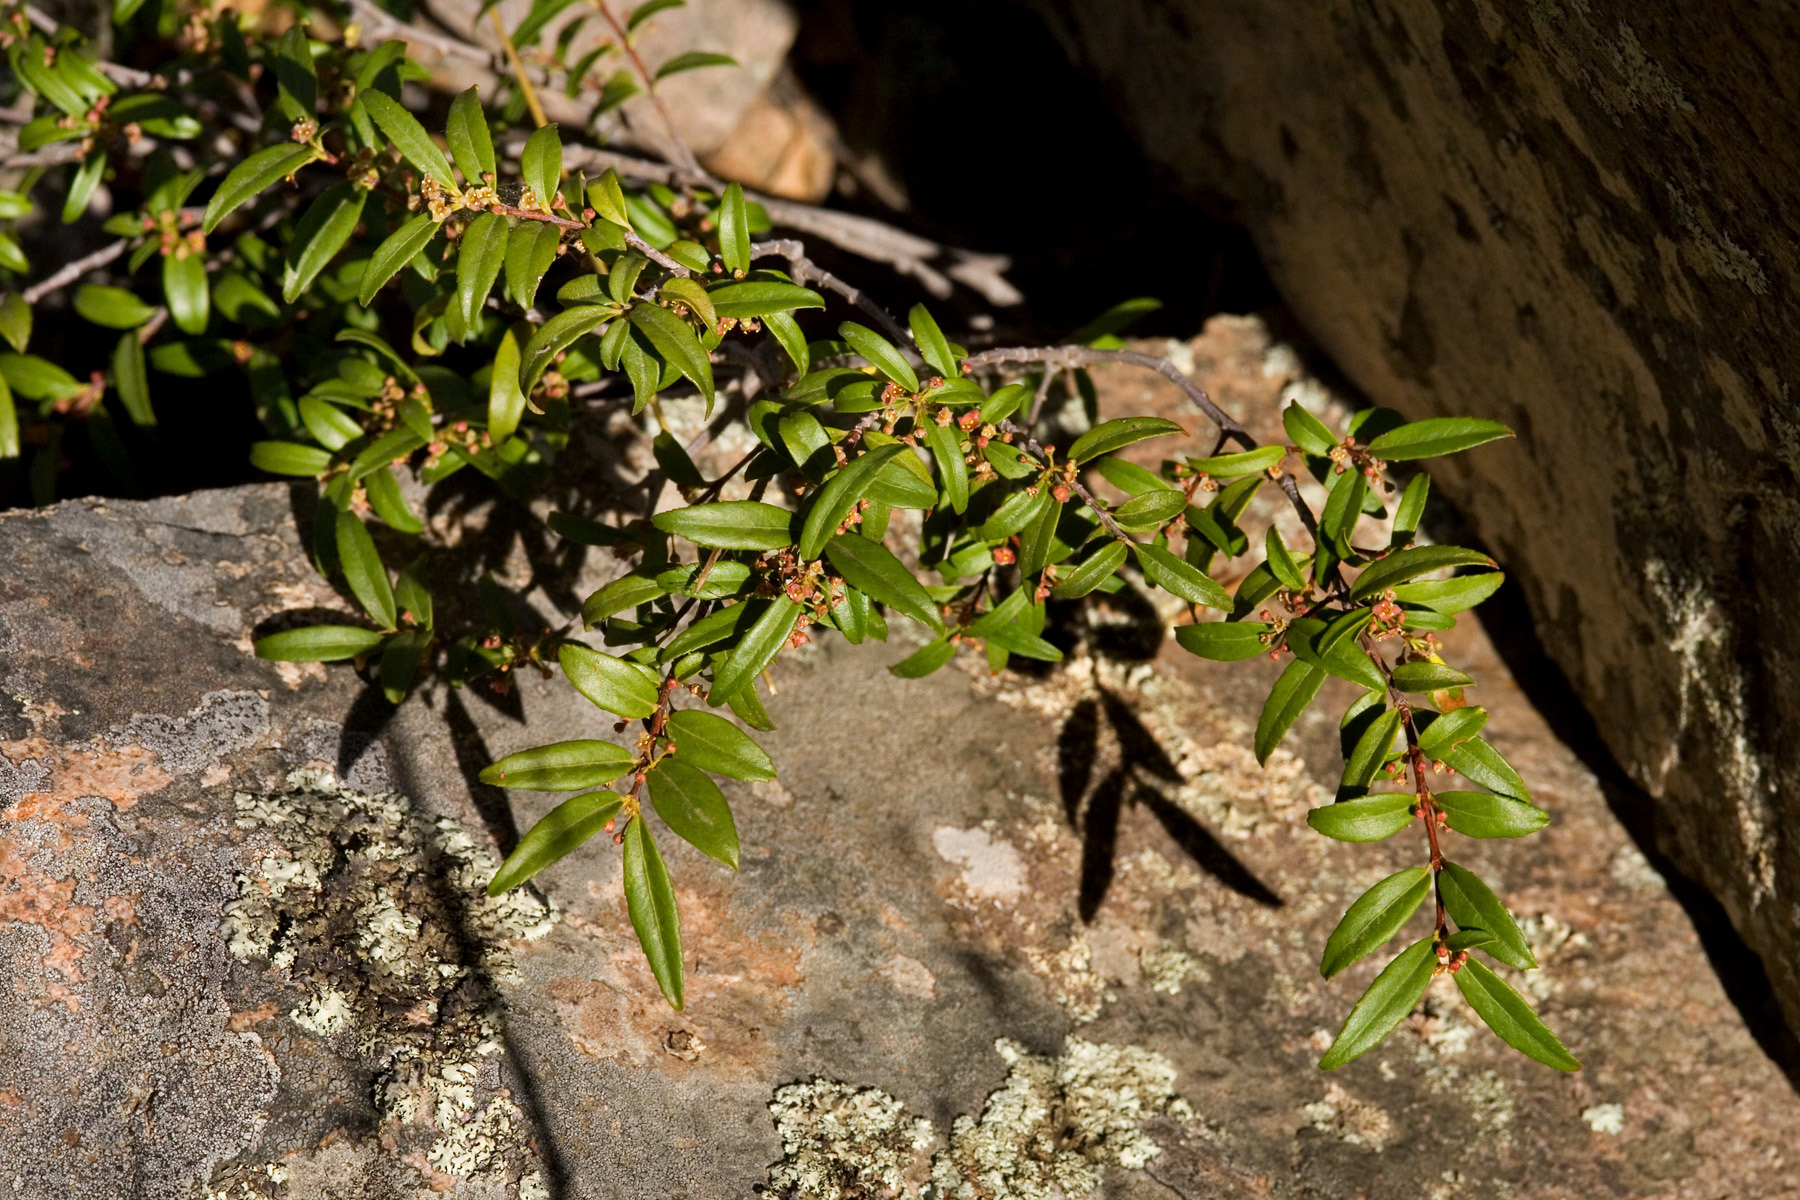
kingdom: Plantae
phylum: Tracheophyta
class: Magnoliopsida
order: Celastrales
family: Celastraceae
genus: Paxistima
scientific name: Paxistima myrsinites
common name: Mountain-lover
